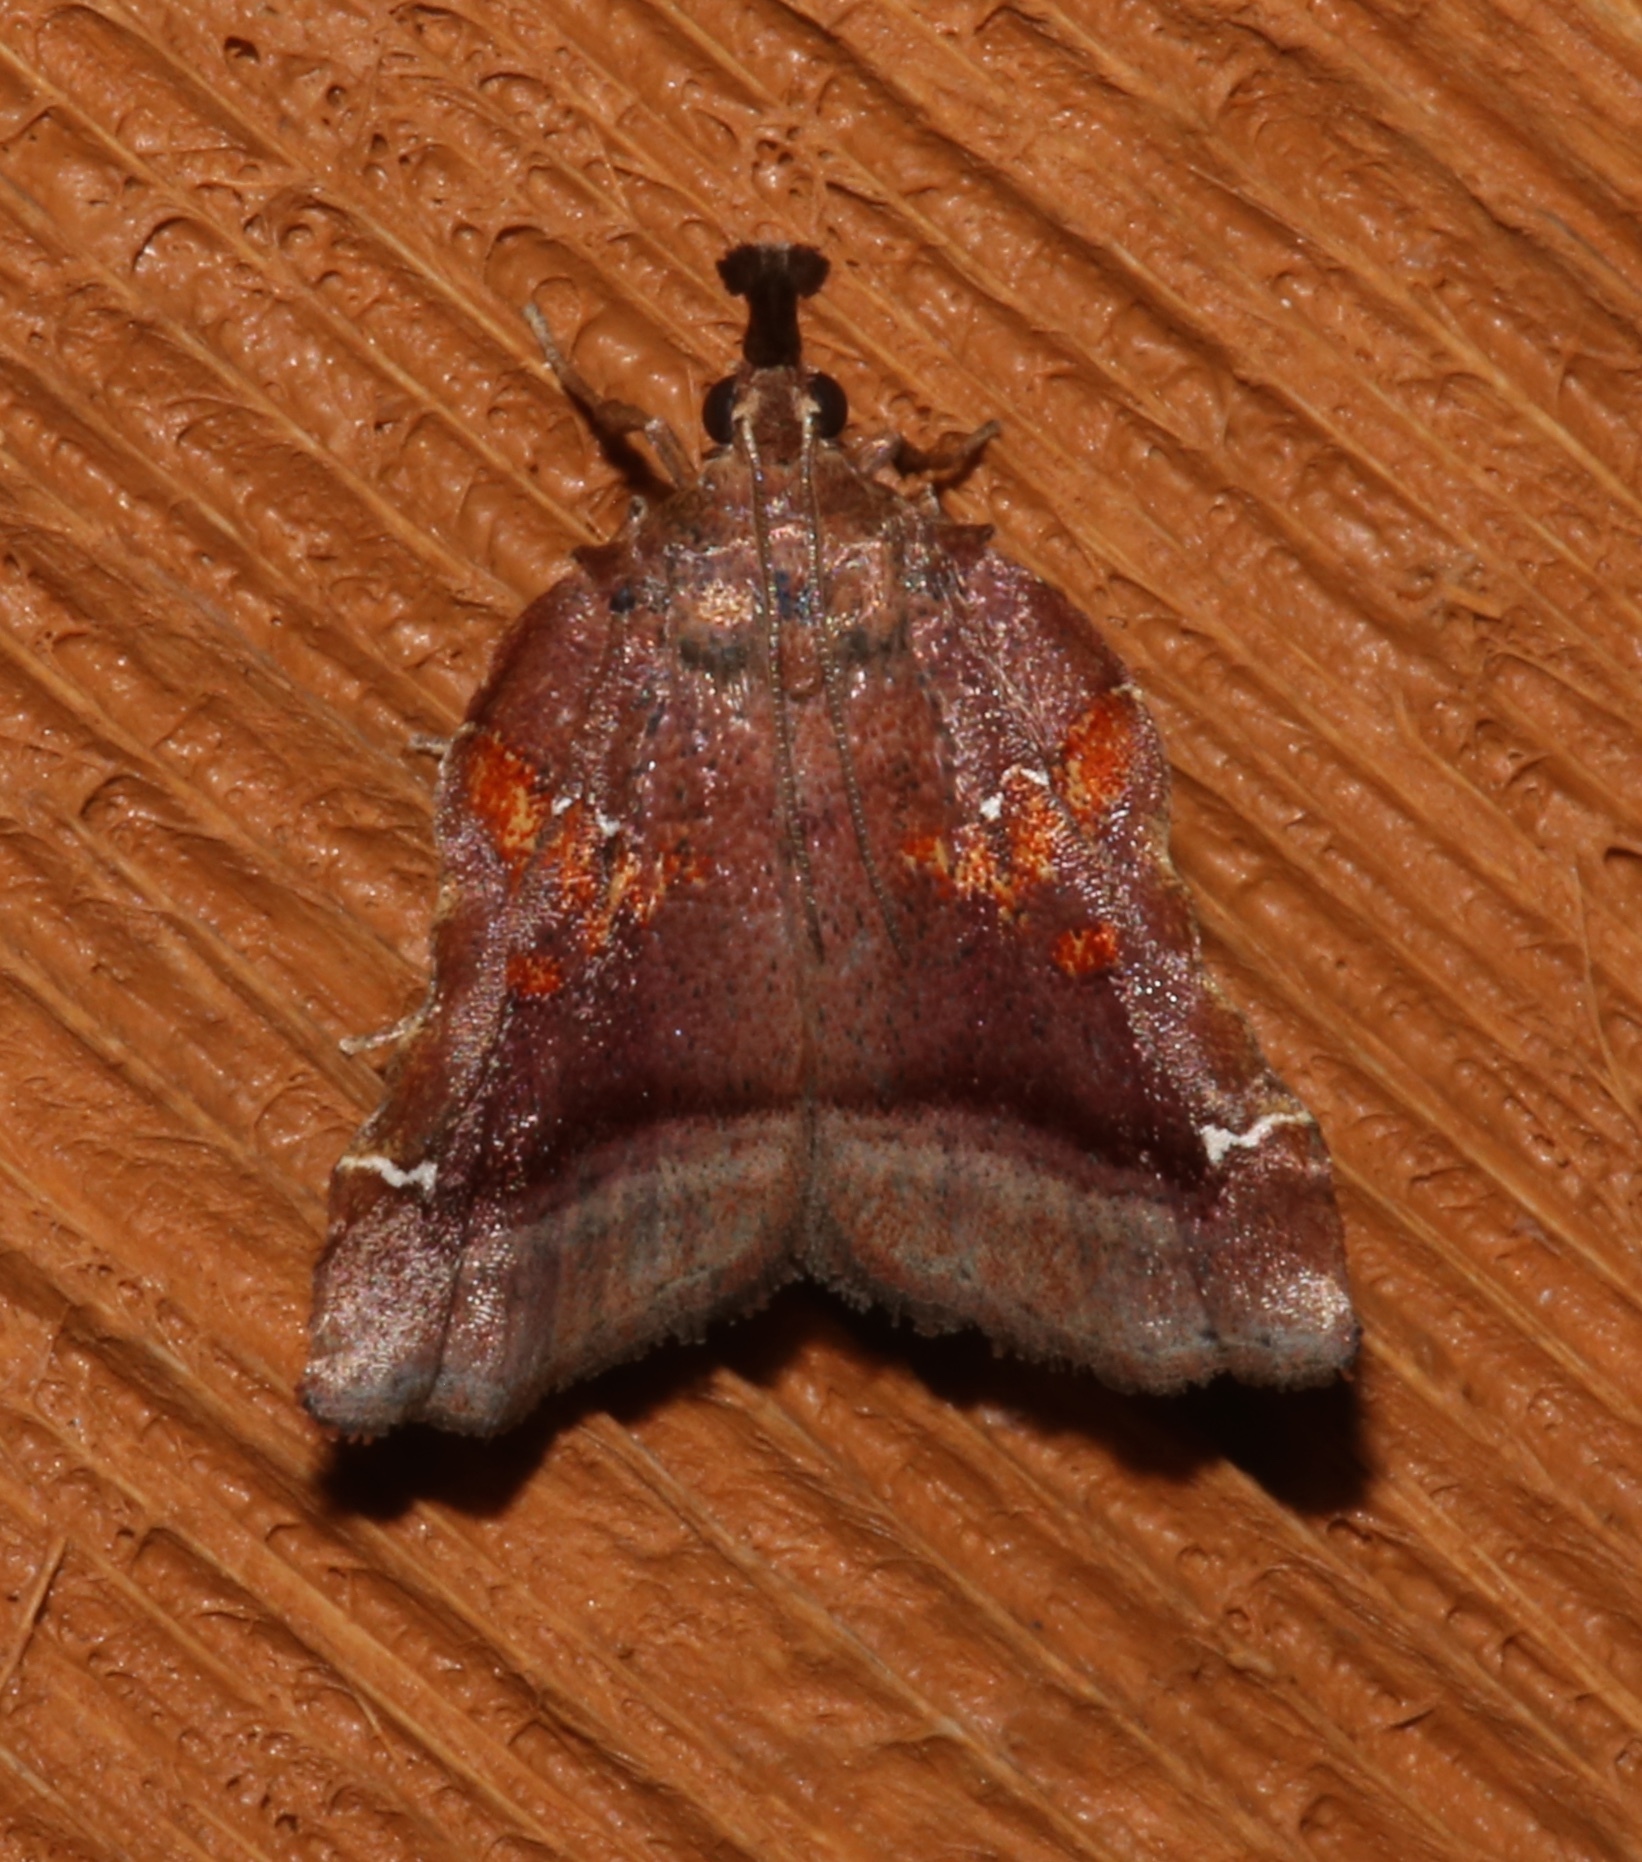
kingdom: Animalia
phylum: Arthropoda
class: Insecta
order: Lepidoptera
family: Pyralidae
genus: Clydonopteron
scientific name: Clydonopteron sacculana
